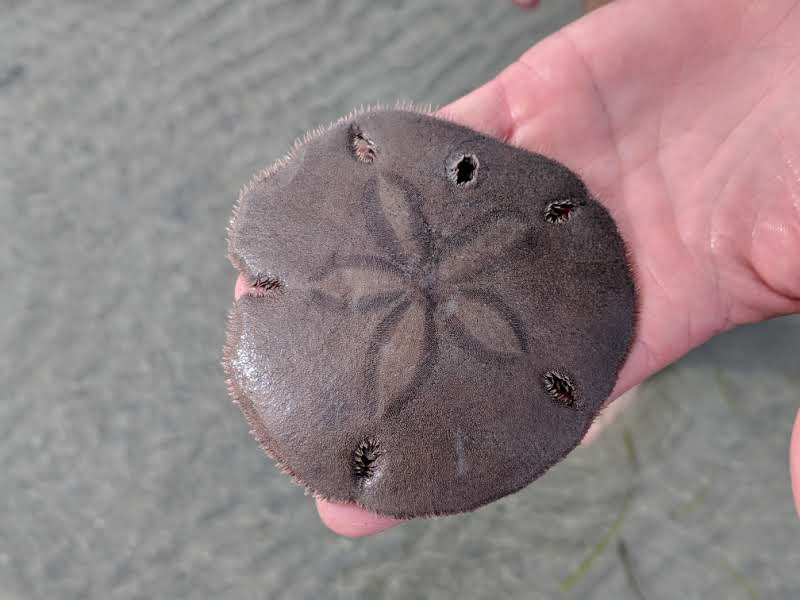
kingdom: Animalia
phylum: Echinodermata
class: Echinoidea
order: Echinolampadacea
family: Mellitidae
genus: Encope
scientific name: Encope micropora
